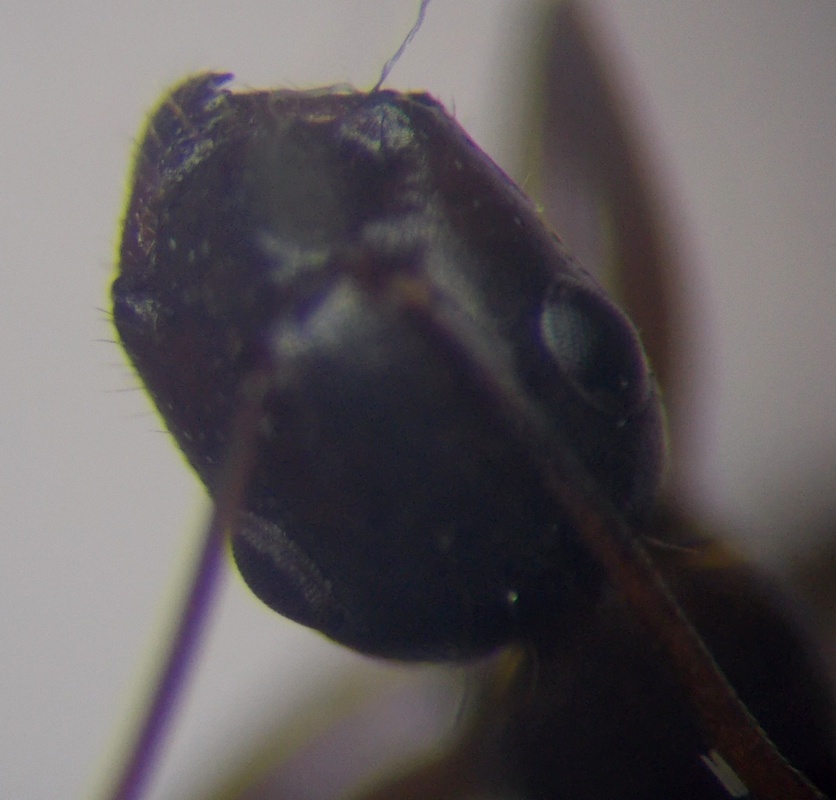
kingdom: Animalia
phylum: Arthropoda
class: Insecta
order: Hymenoptera
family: Formicidae
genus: Camponotus
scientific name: Camponotus aethiops
